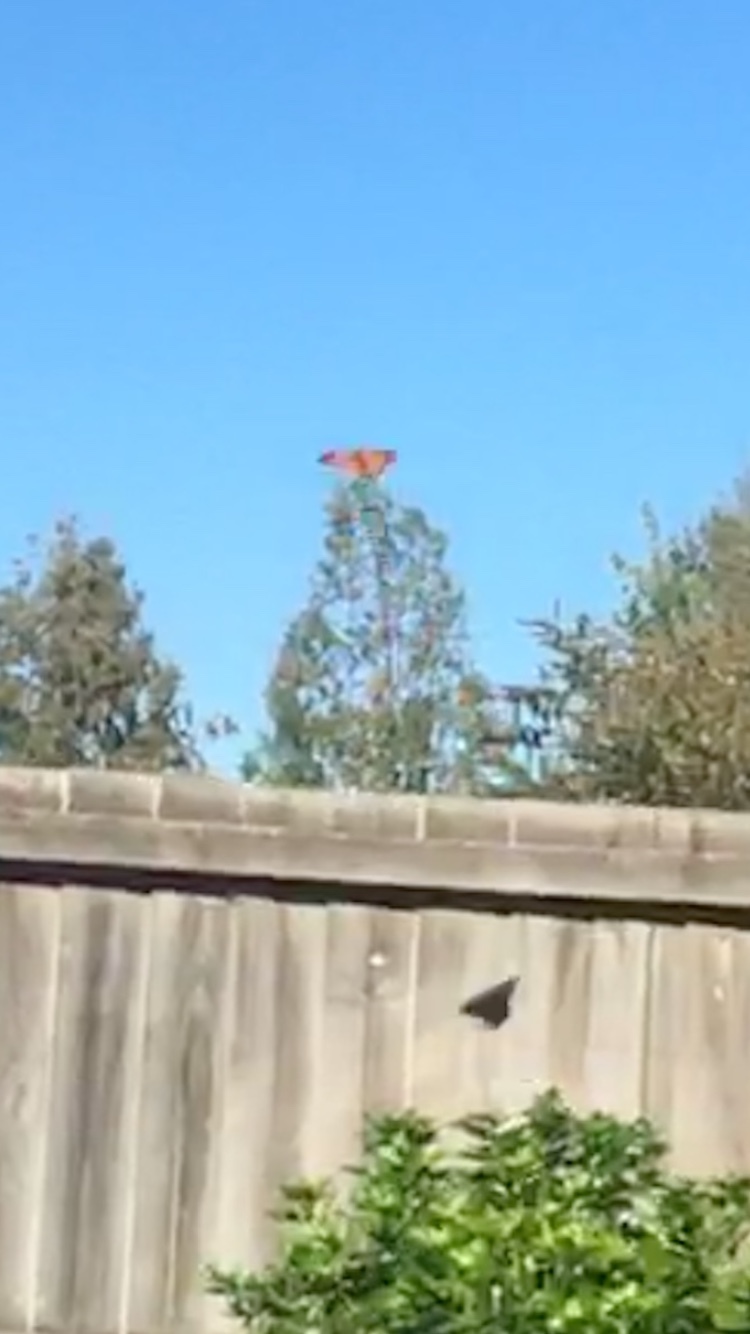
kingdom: Animalia
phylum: Arthropoda
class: Insecta
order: Lepidoptera
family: Nymphalidae
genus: Danaus
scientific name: Danaus plexippus
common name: Monarch
